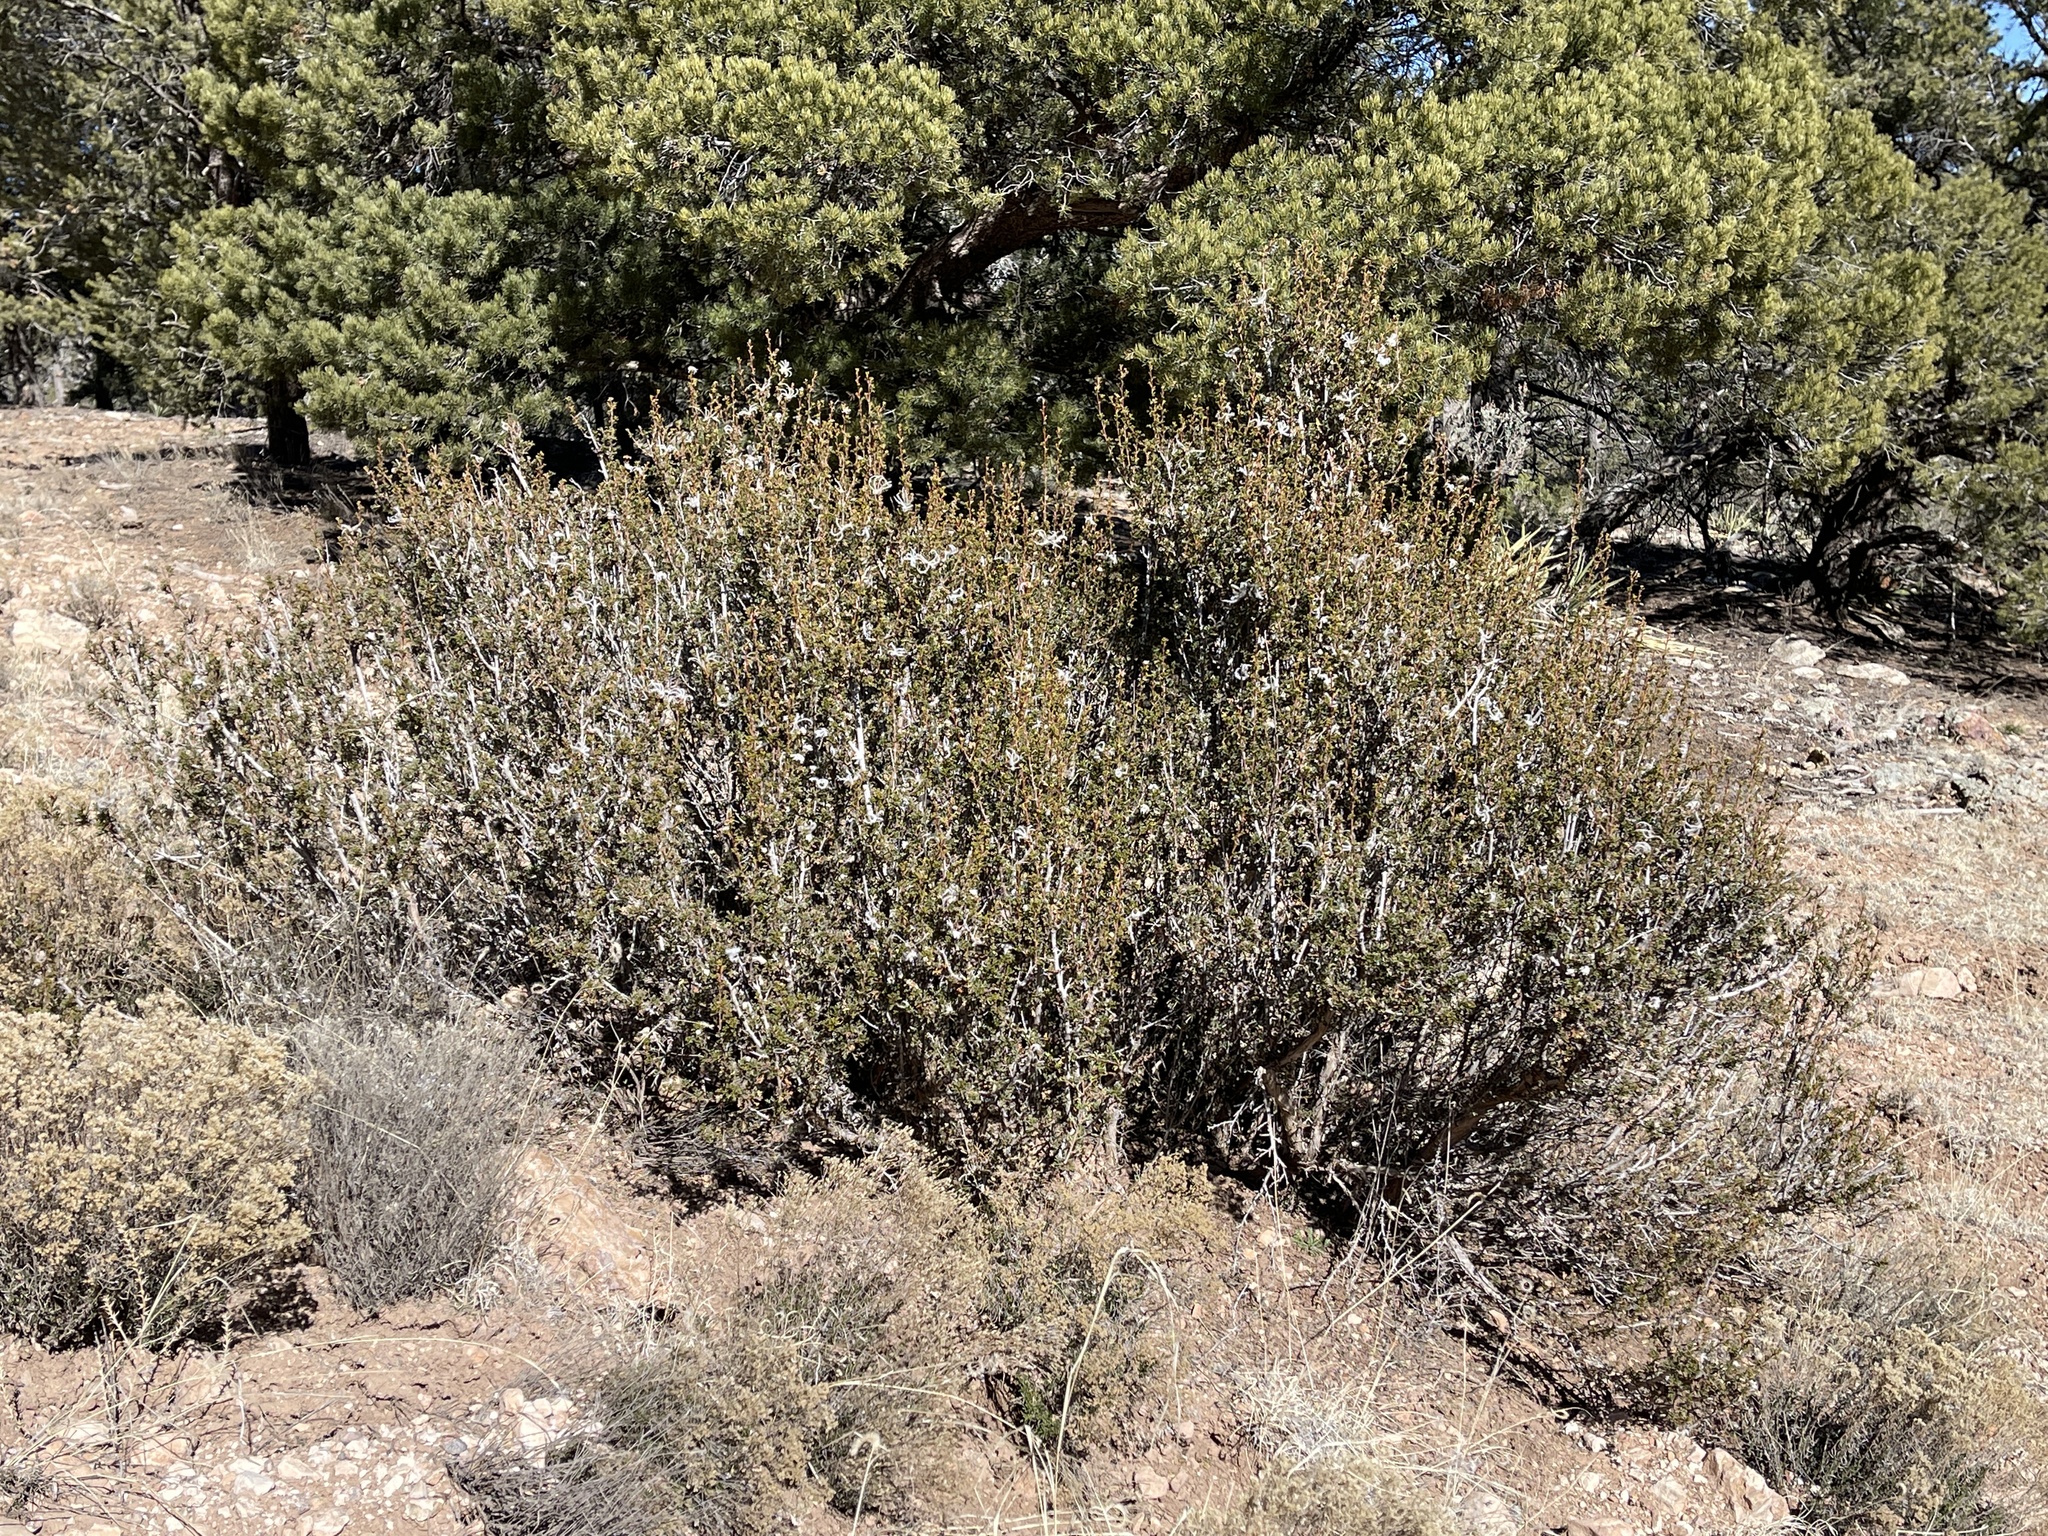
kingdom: Plantae
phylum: Tracheophyta
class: Magnoliopsida
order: Rosales
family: Rosaceae
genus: Purshia
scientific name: Purshia stansburiana
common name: Stansbury's cliffrose
